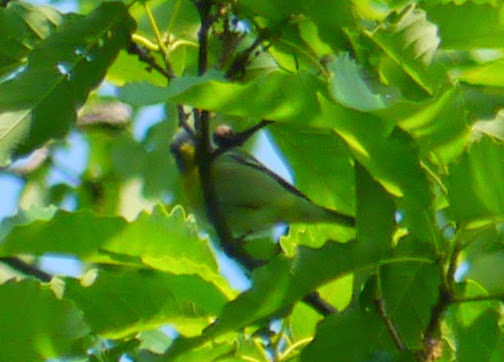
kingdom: Animalia
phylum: Chordata
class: Aves
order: Passeriformes
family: Parulidae
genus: Setophaga
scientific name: Setophaga americana
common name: Northern parula
